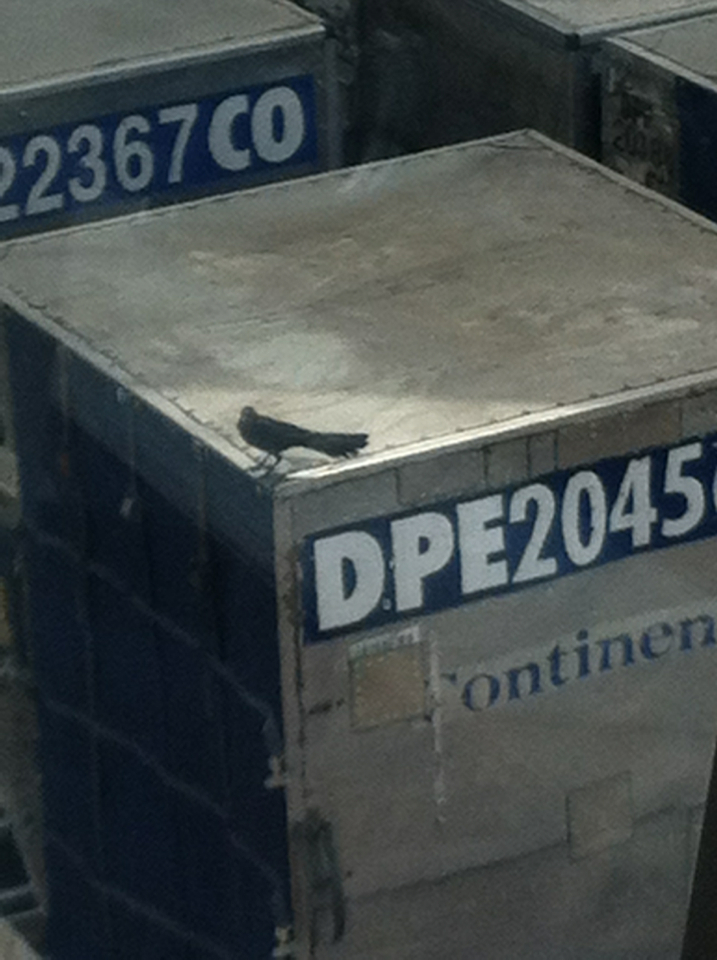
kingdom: Animalia
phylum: Chordata
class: Aves
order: Passeriformes
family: Icteridae
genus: Quiscalus
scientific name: Quiscalus mexicanus
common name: Great-tailed grackle
